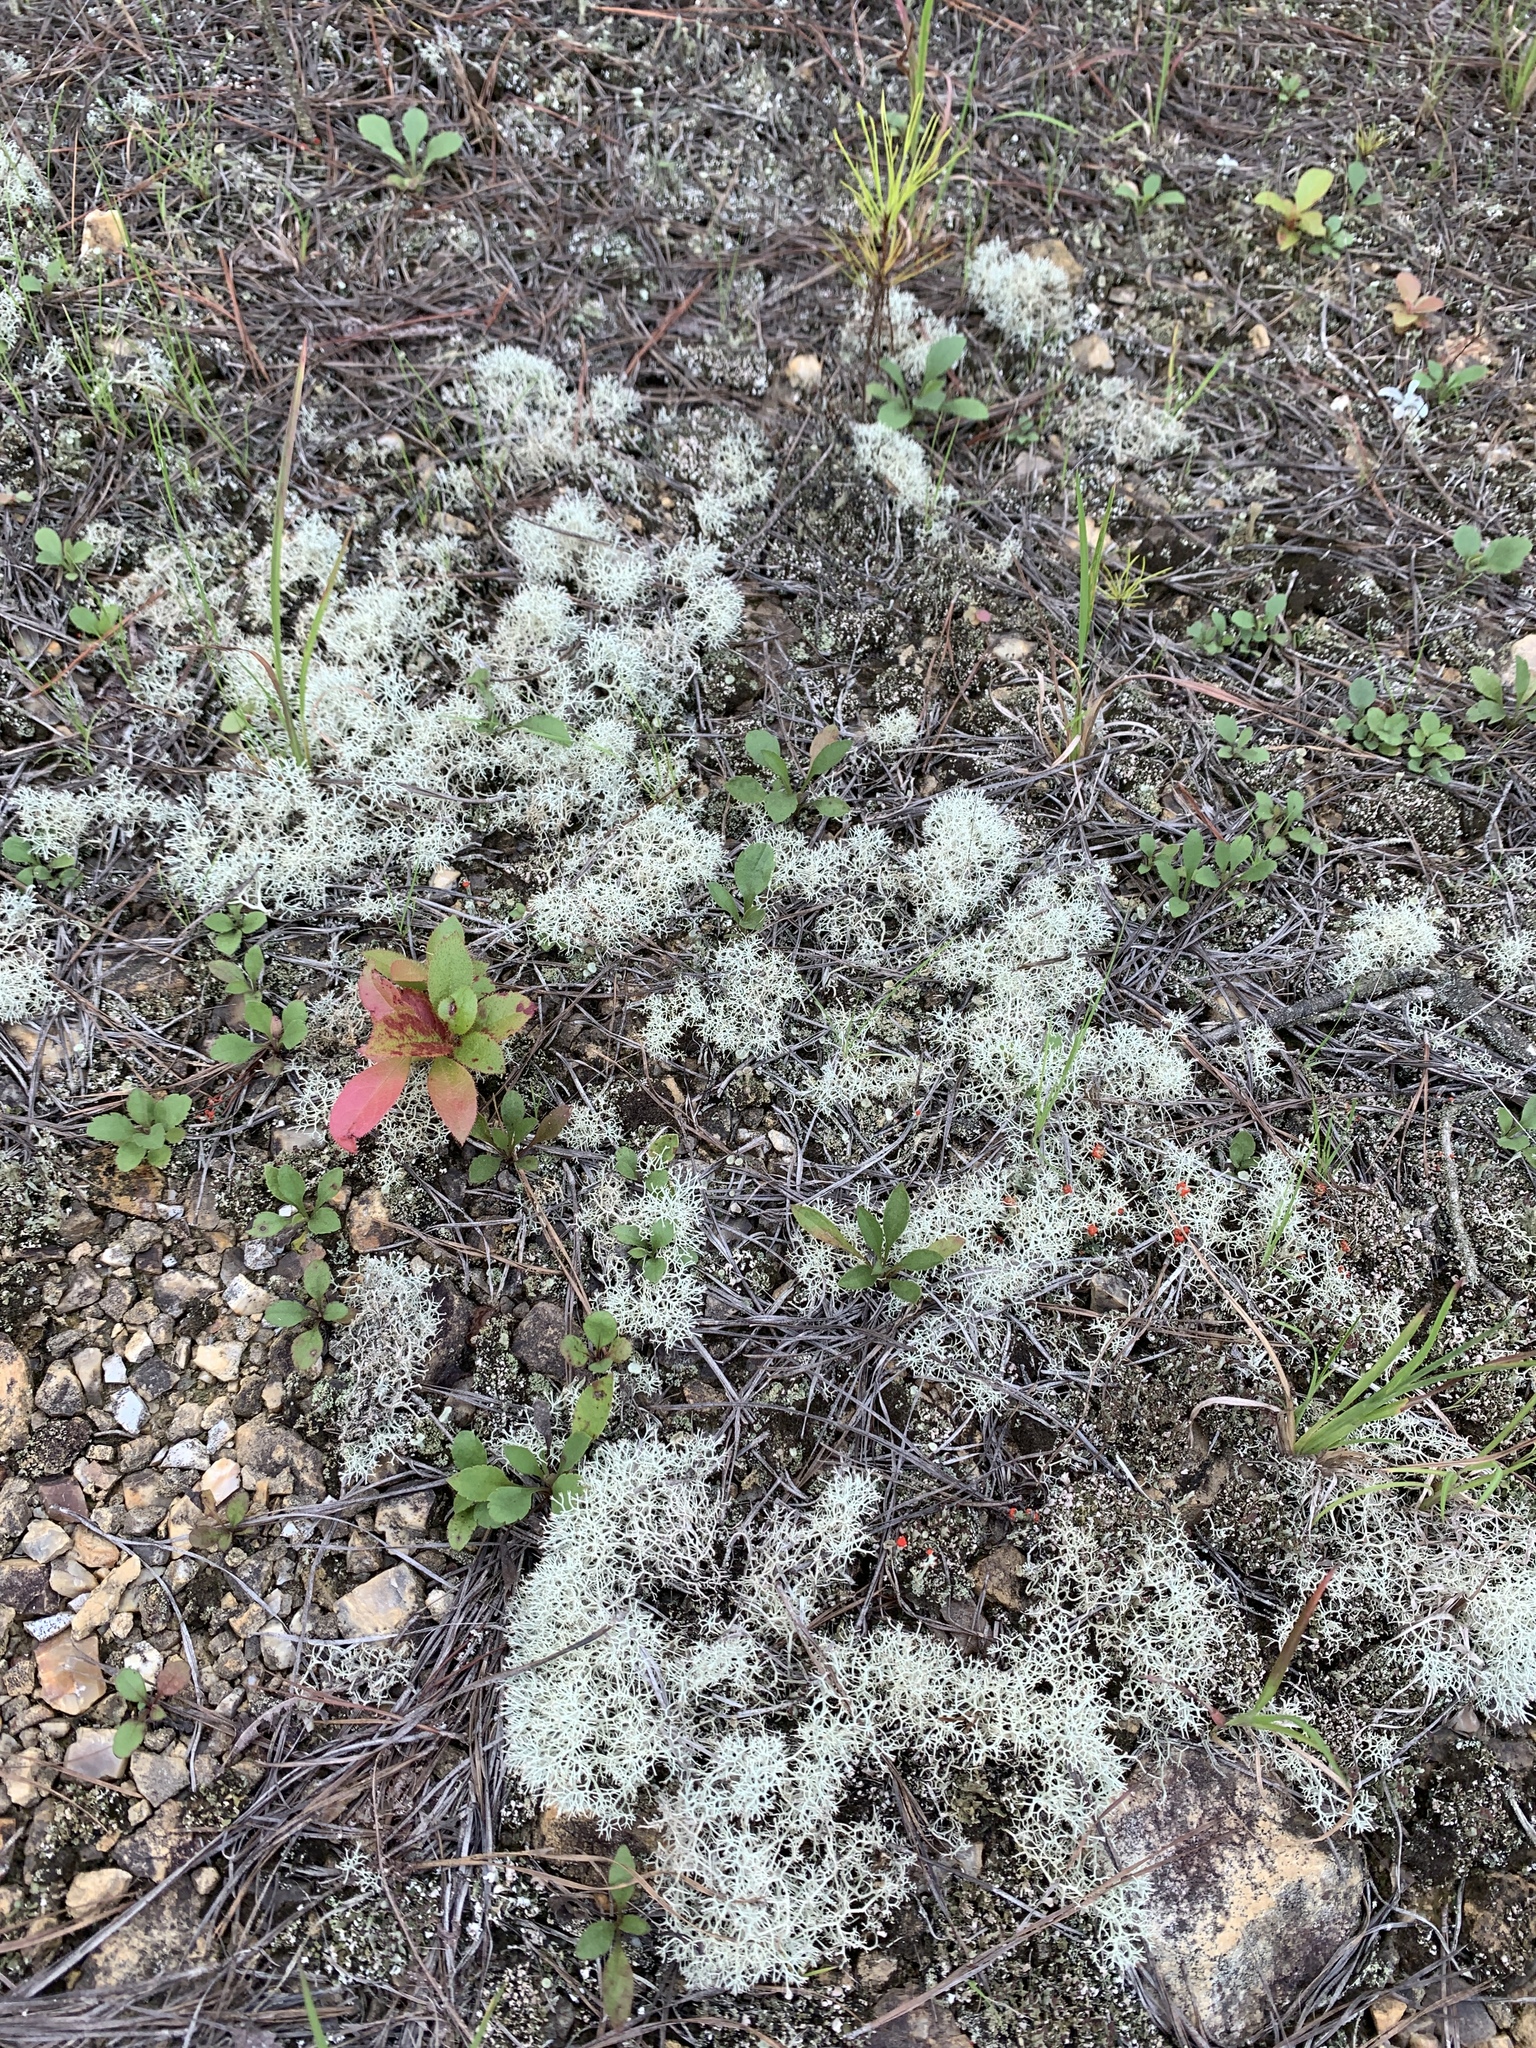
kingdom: Fungi
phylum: Ascomycota
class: Lecanoromycetes
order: Lecanorales
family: Cladoniaceae
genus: Cladonia
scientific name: Cladonia subtenuis
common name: Dixie reindeer lichen
